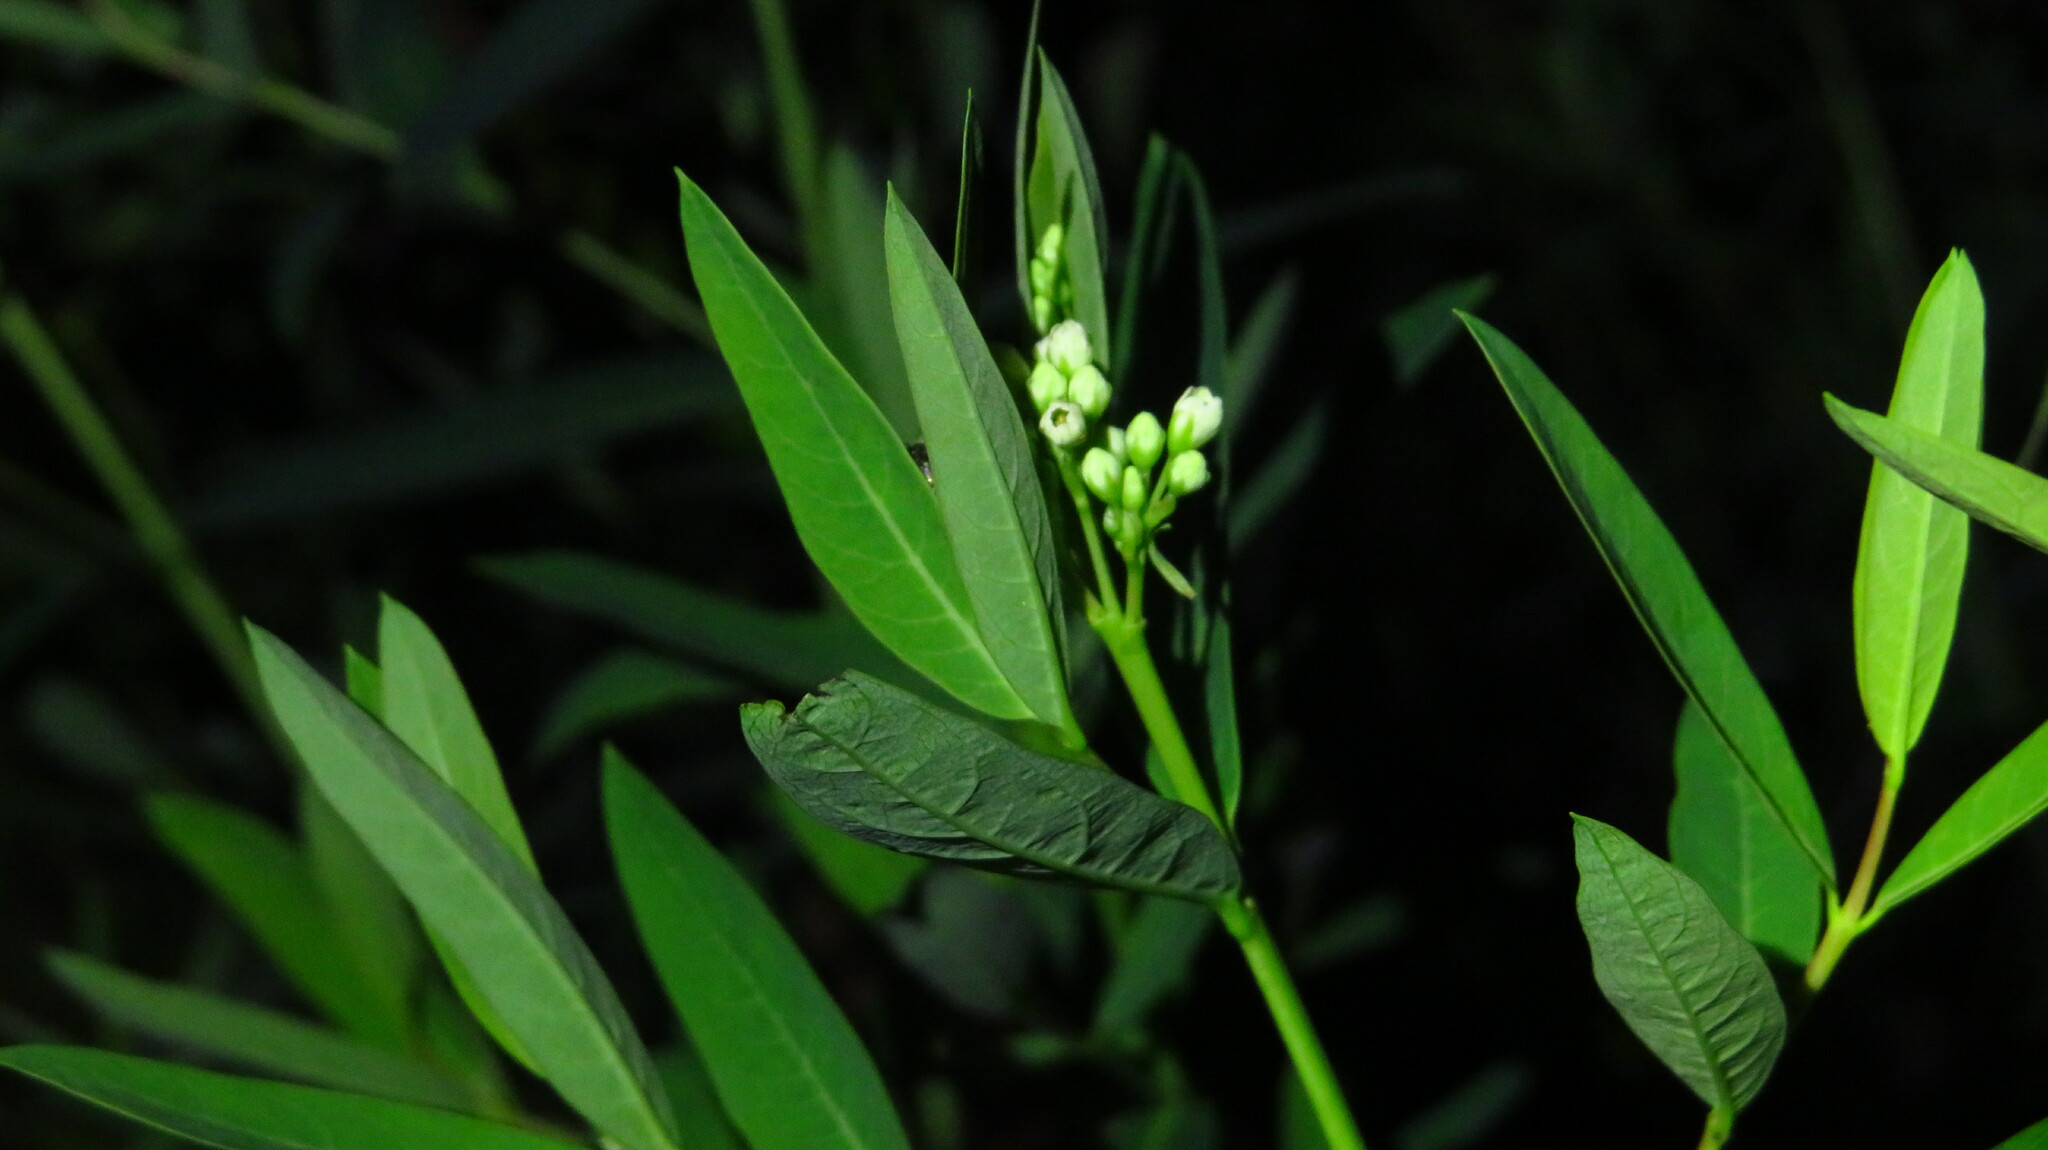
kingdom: Plantae
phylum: Tracheophyta
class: Magnoliopsida
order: Gentianales
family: Apocynaceae
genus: Apocynum
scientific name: Apocynum cannabinum
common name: Hemp dogbane
